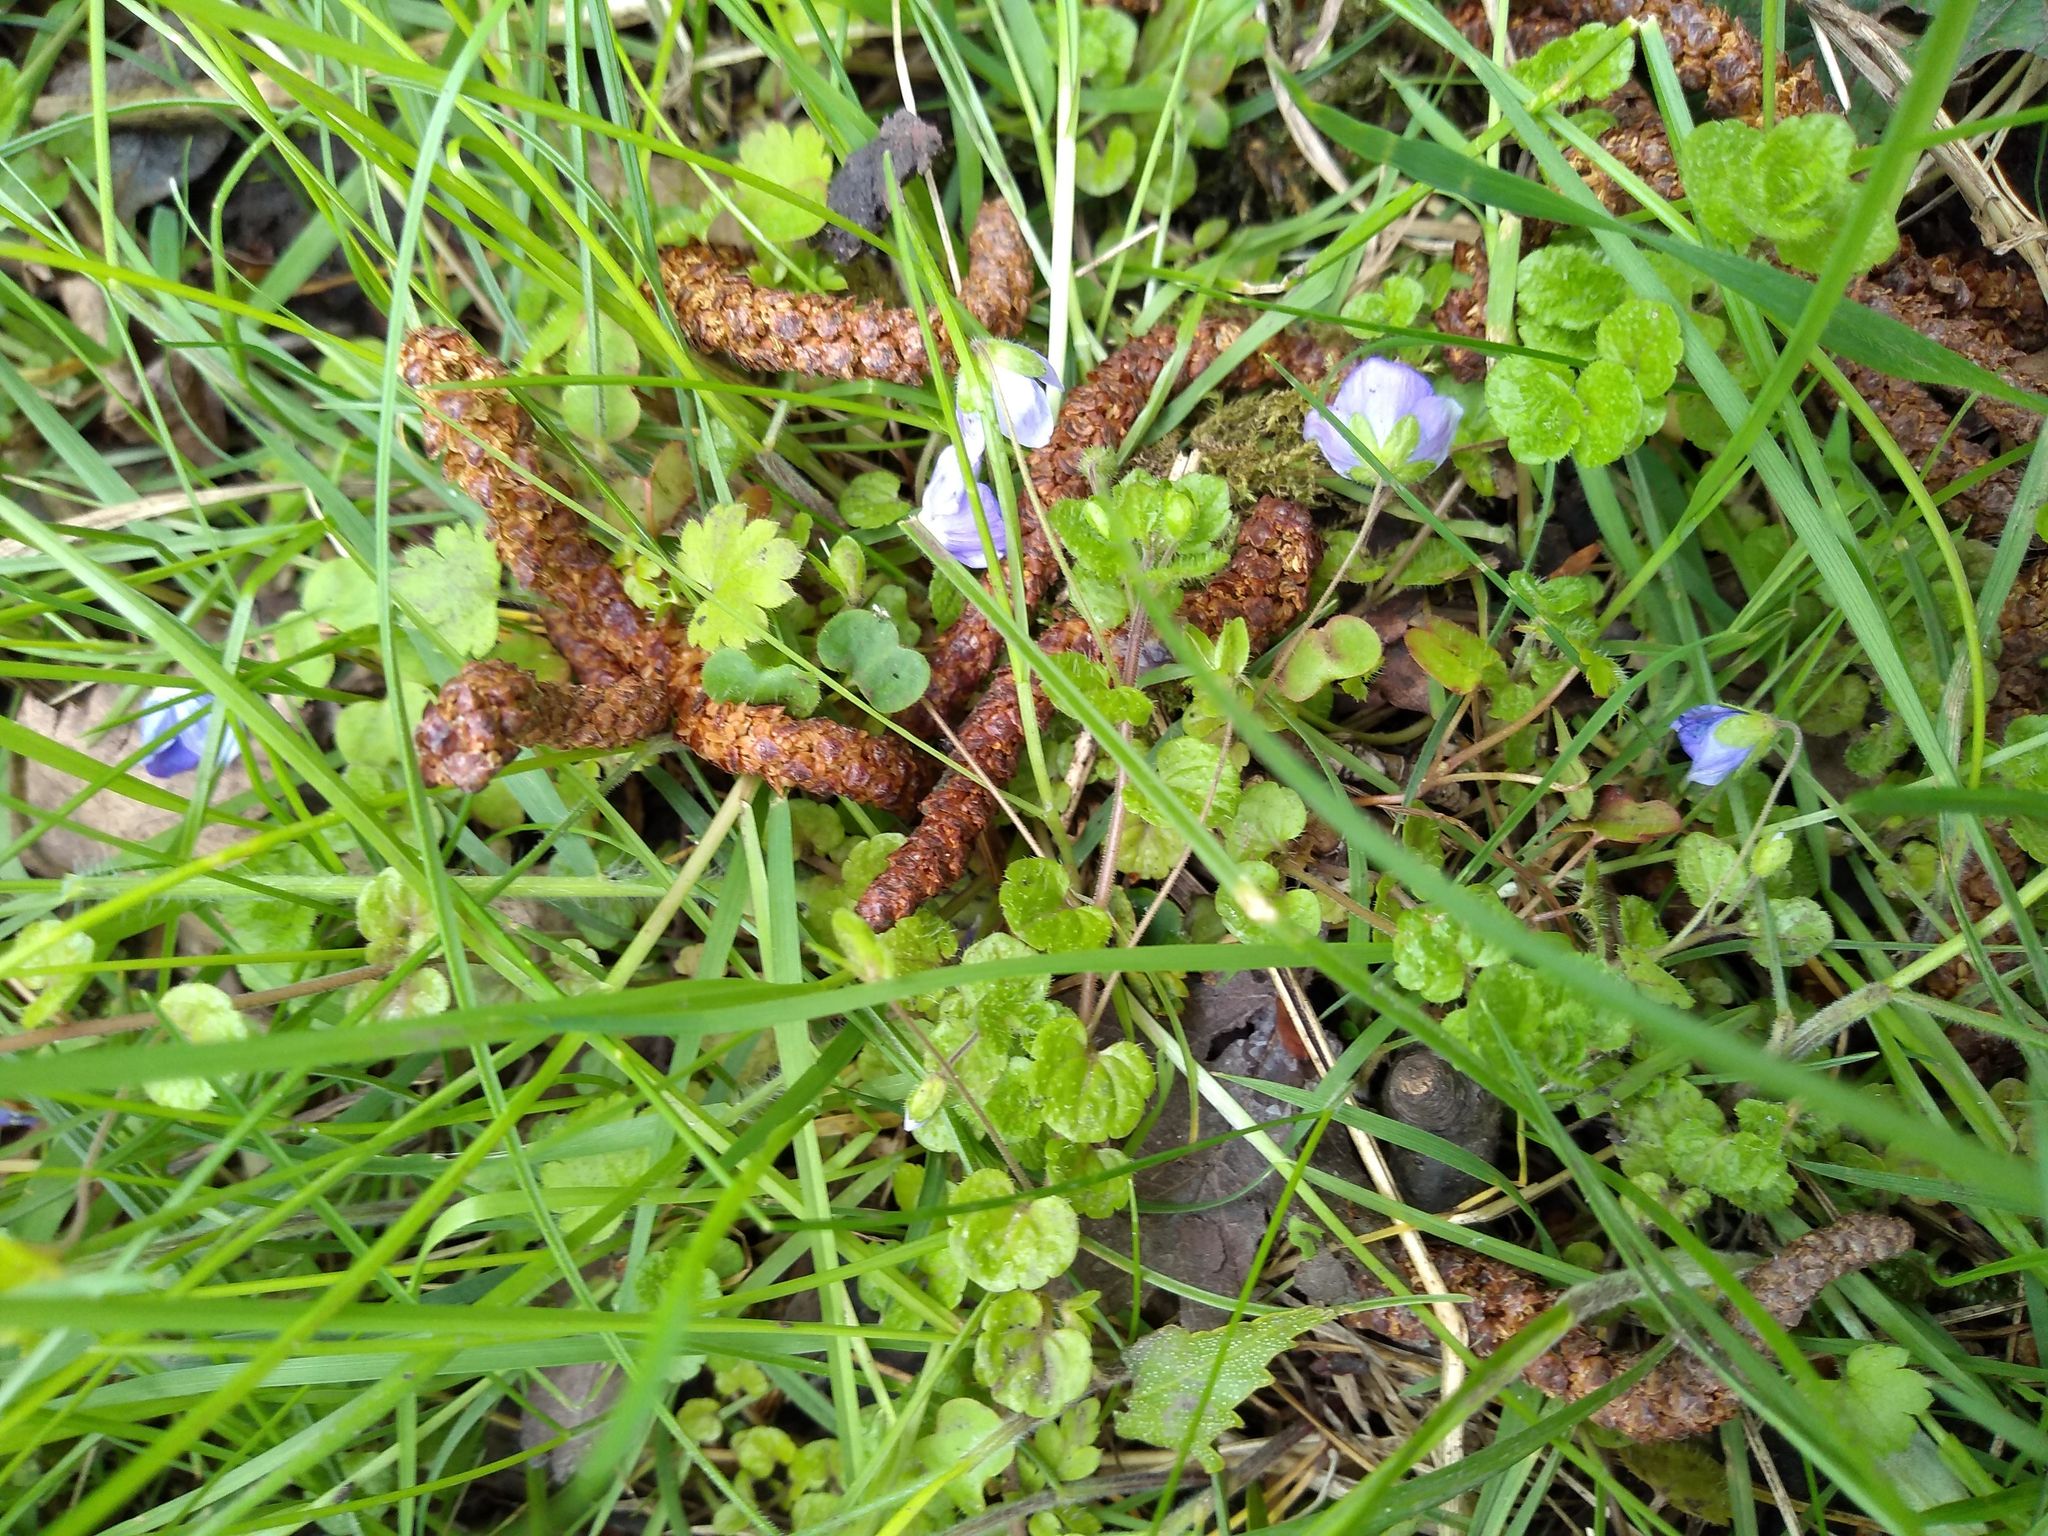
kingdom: Plantae
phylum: Tracheophyta
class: Magnoliopsida
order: Lamiales
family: Plantaginaceae
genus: Veronica
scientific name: Veronica filiformis
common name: Slender speedwell
